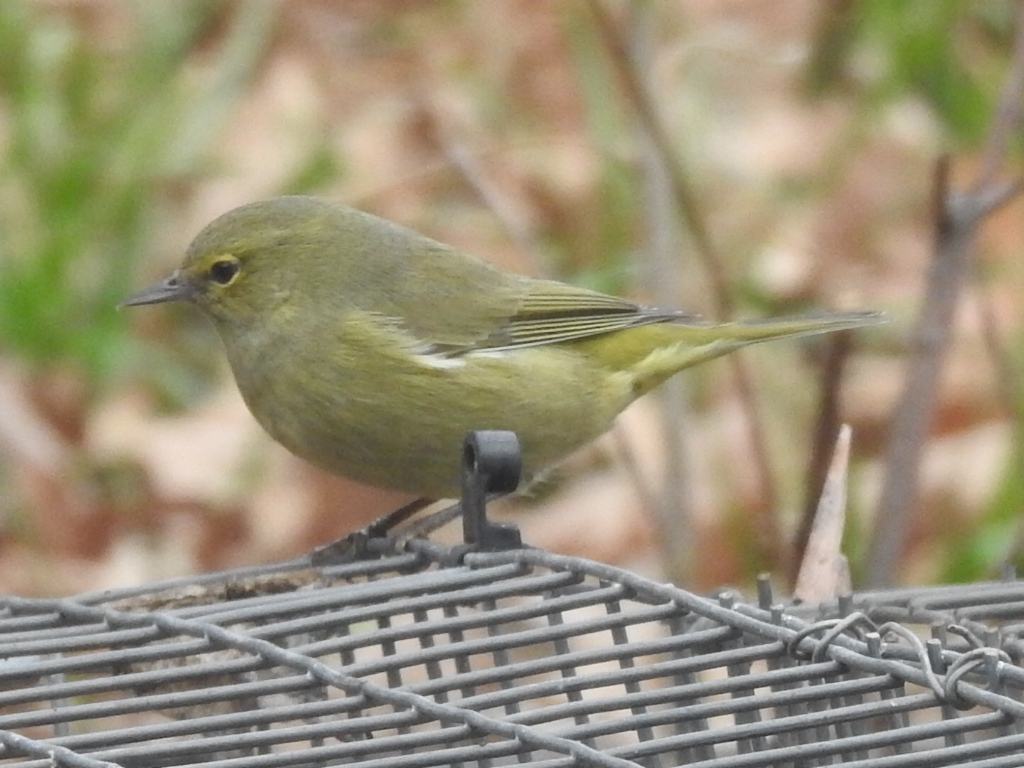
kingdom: Animalia
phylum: Chordata
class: Aves
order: Passeriformes
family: Parulidae
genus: Leiothlypis
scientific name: Leiothlypis celata
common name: Orange-crowned warbler
